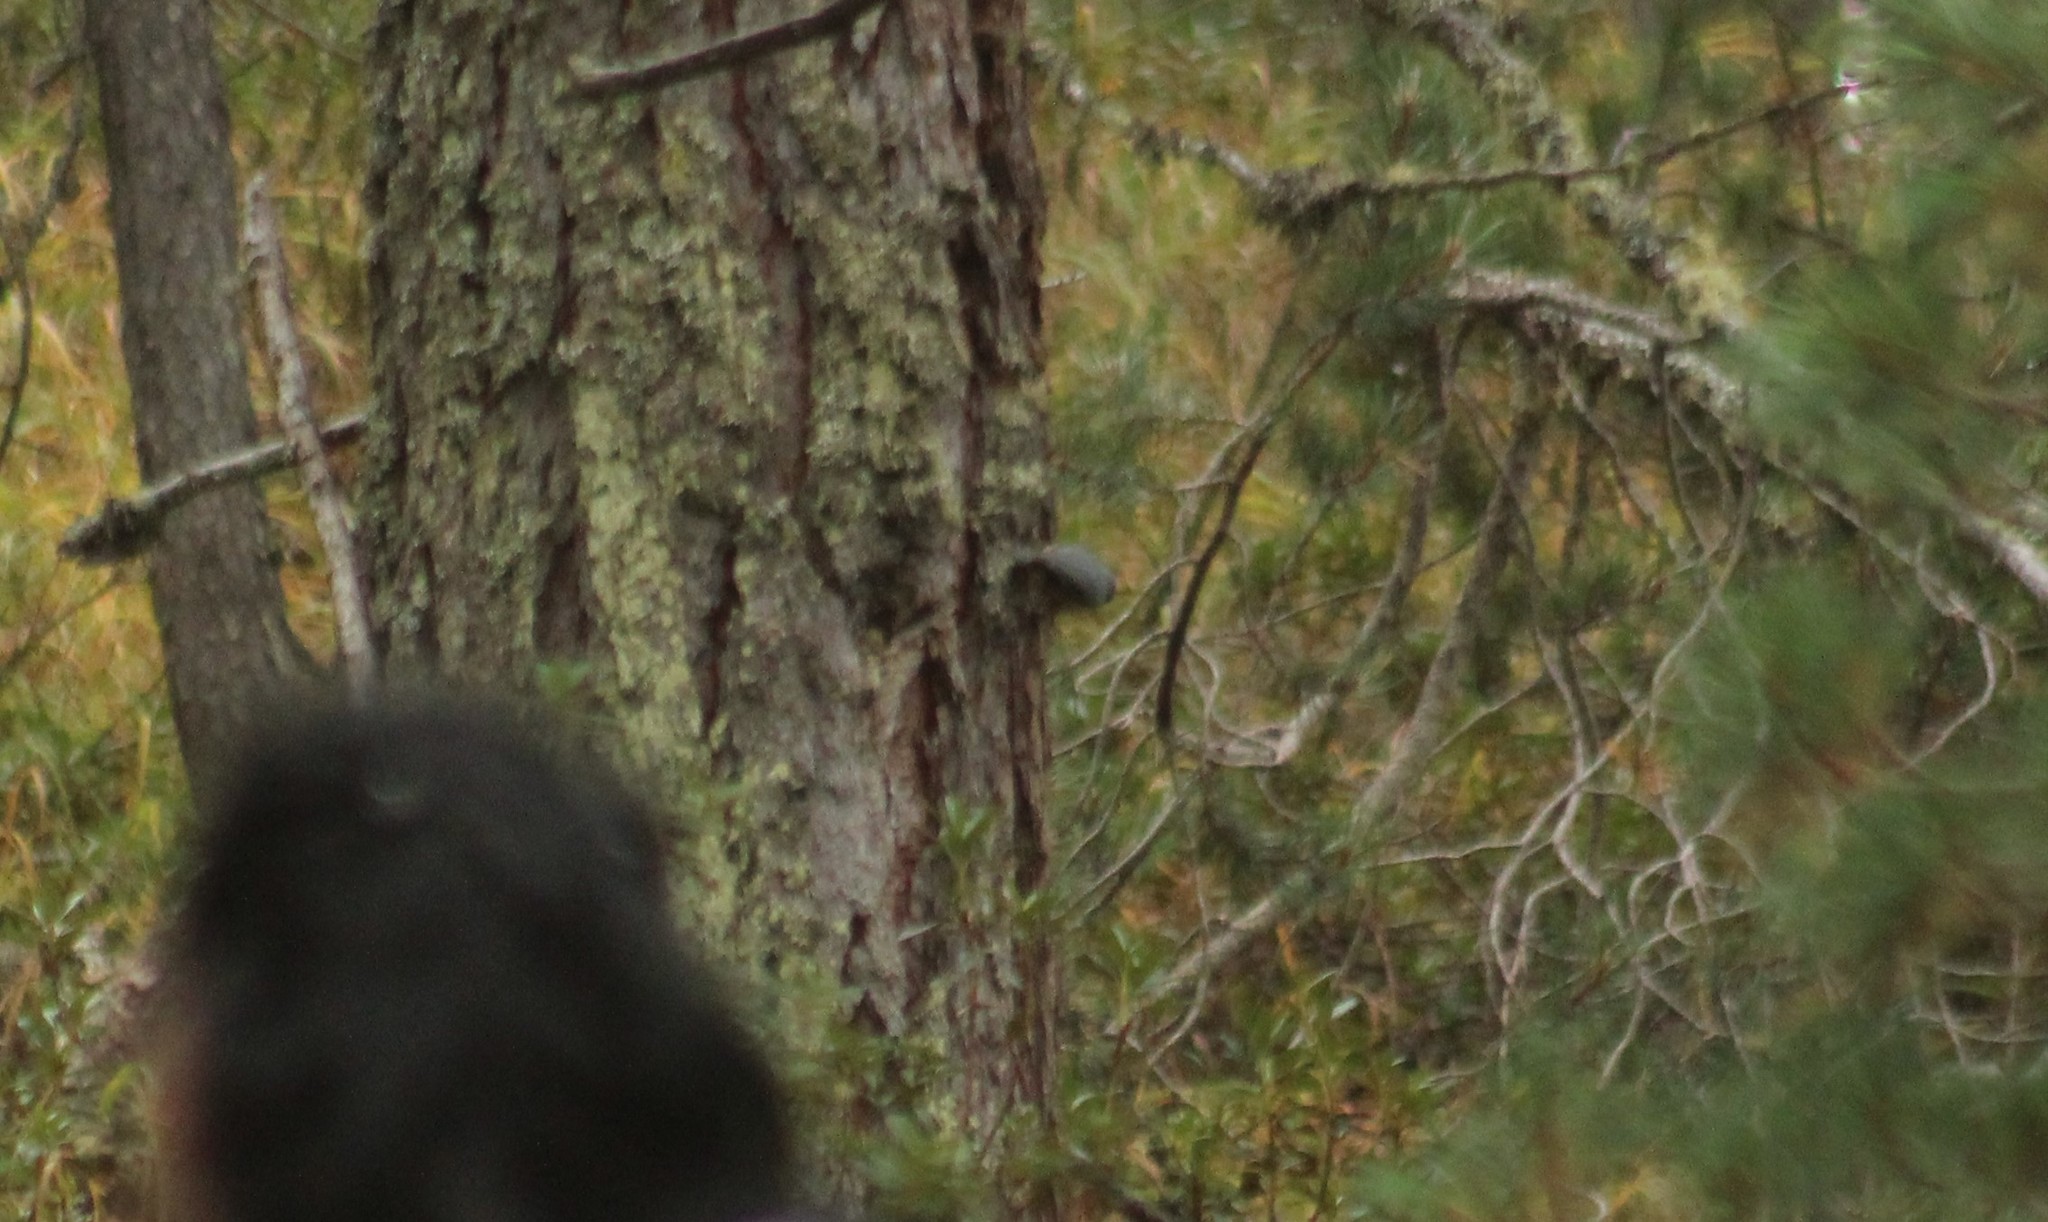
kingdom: Animalia
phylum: Chordata
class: Aves
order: Passeriformes
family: Sittidae
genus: Sitta
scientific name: Sitta europaea
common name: Eurasian nuthatch
